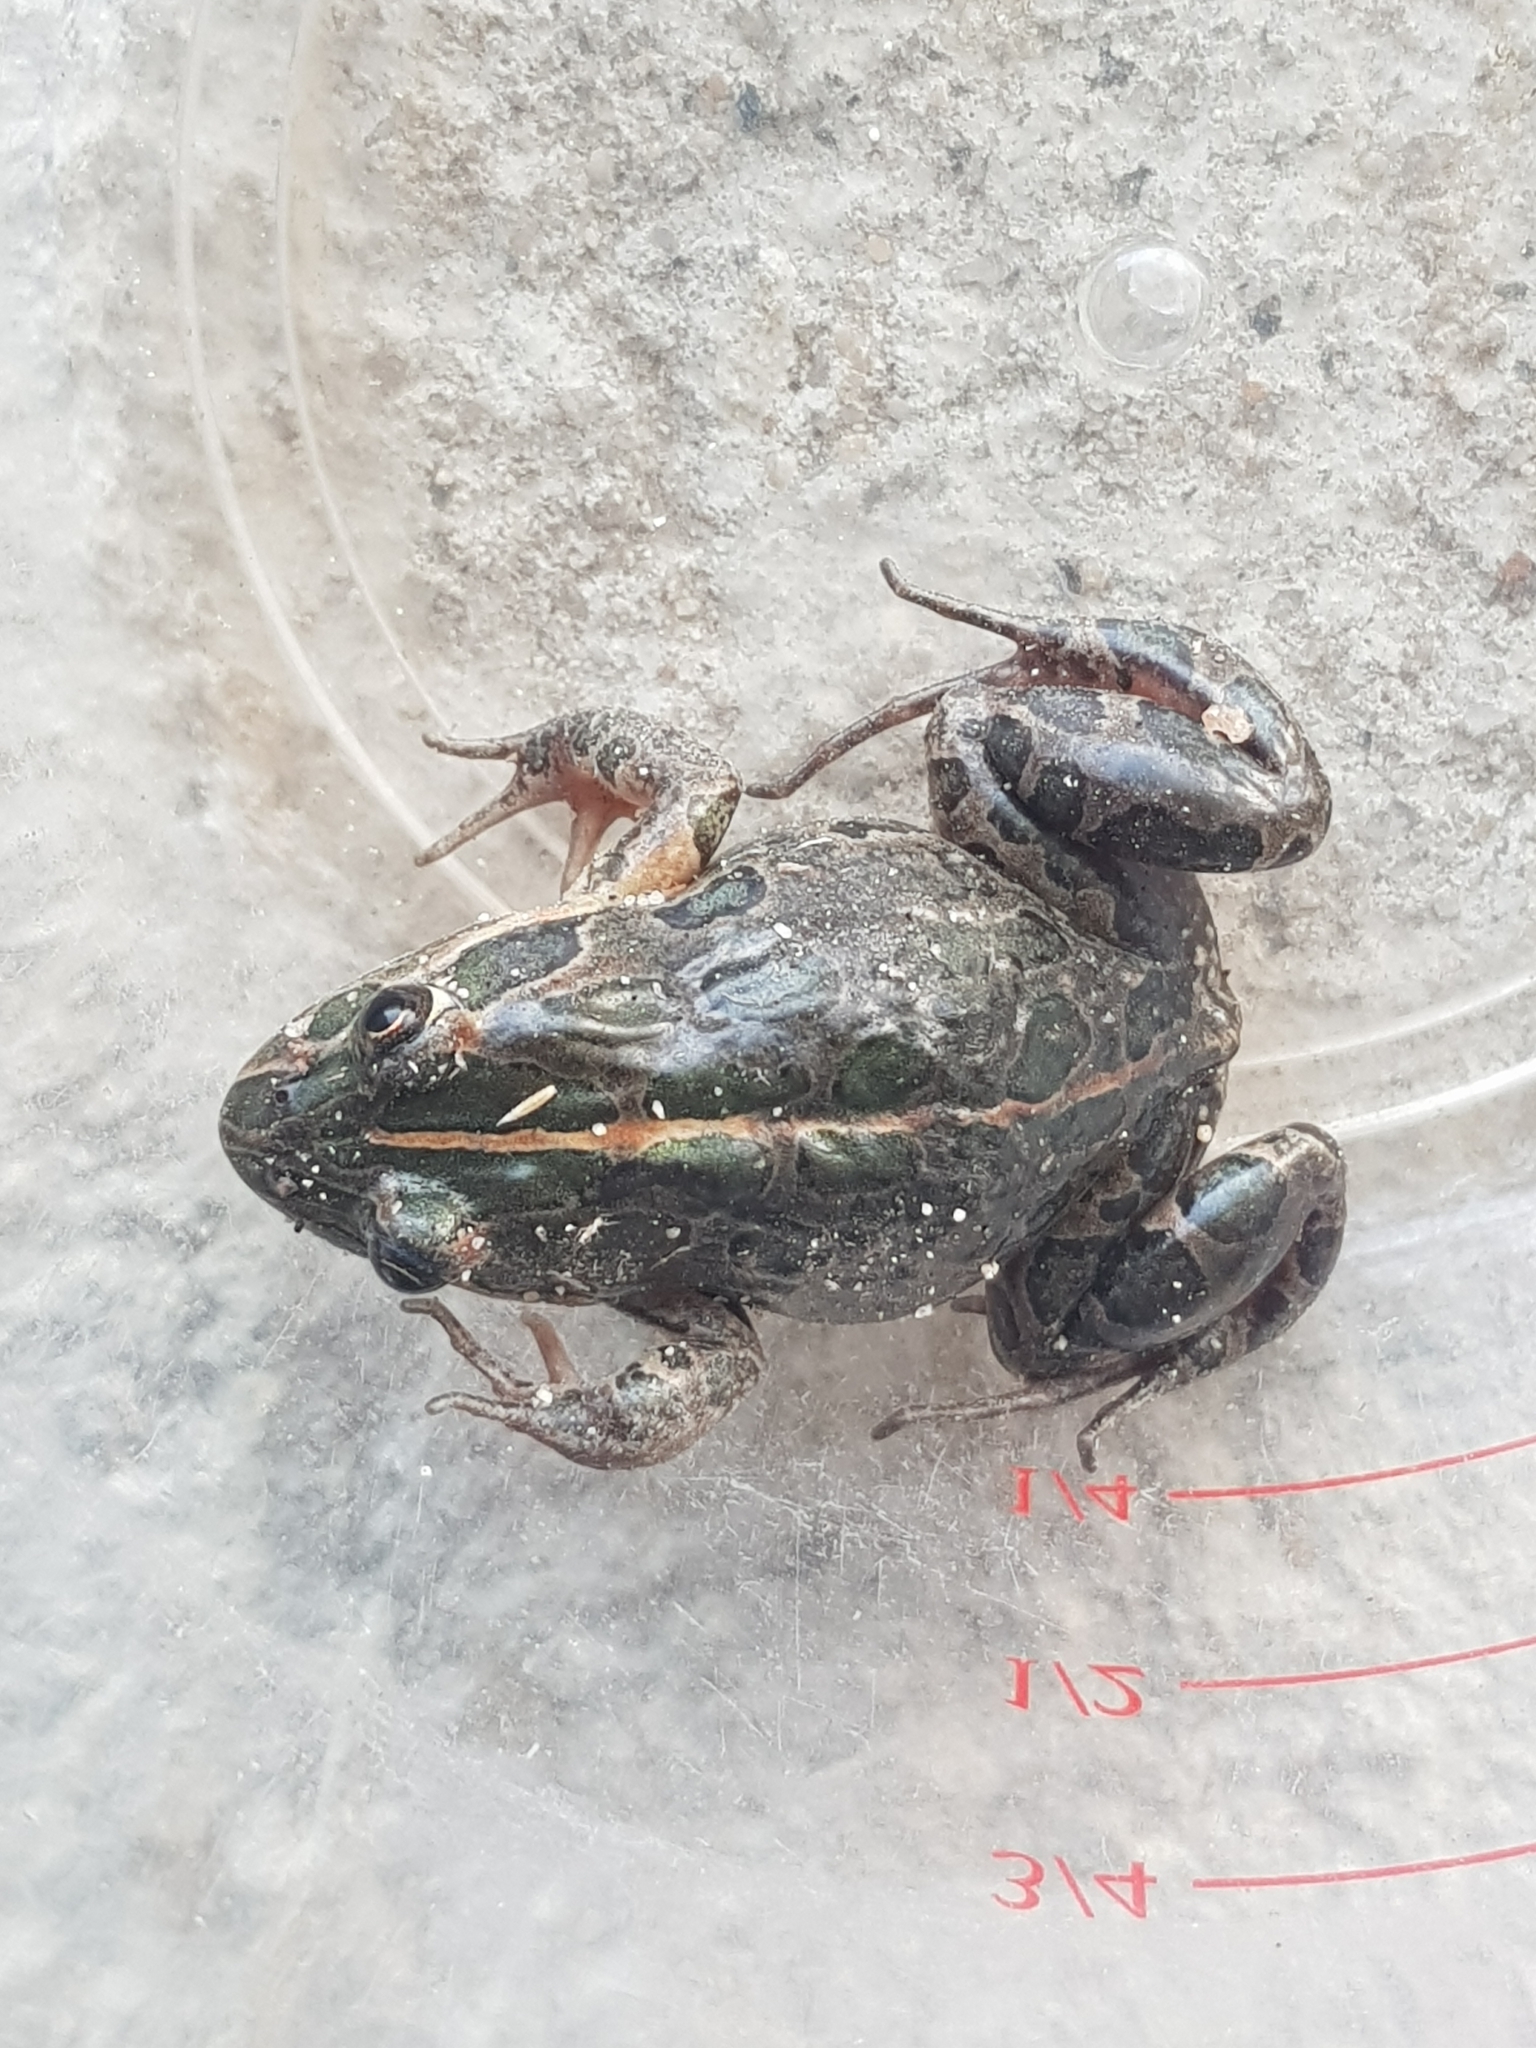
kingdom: Animalia
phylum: Chordata
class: Amphibia
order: Anura
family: Limnodynastidae
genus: Limnodynastes
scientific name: Limnodynastes tasmaniensis
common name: Spotted marsh frog
